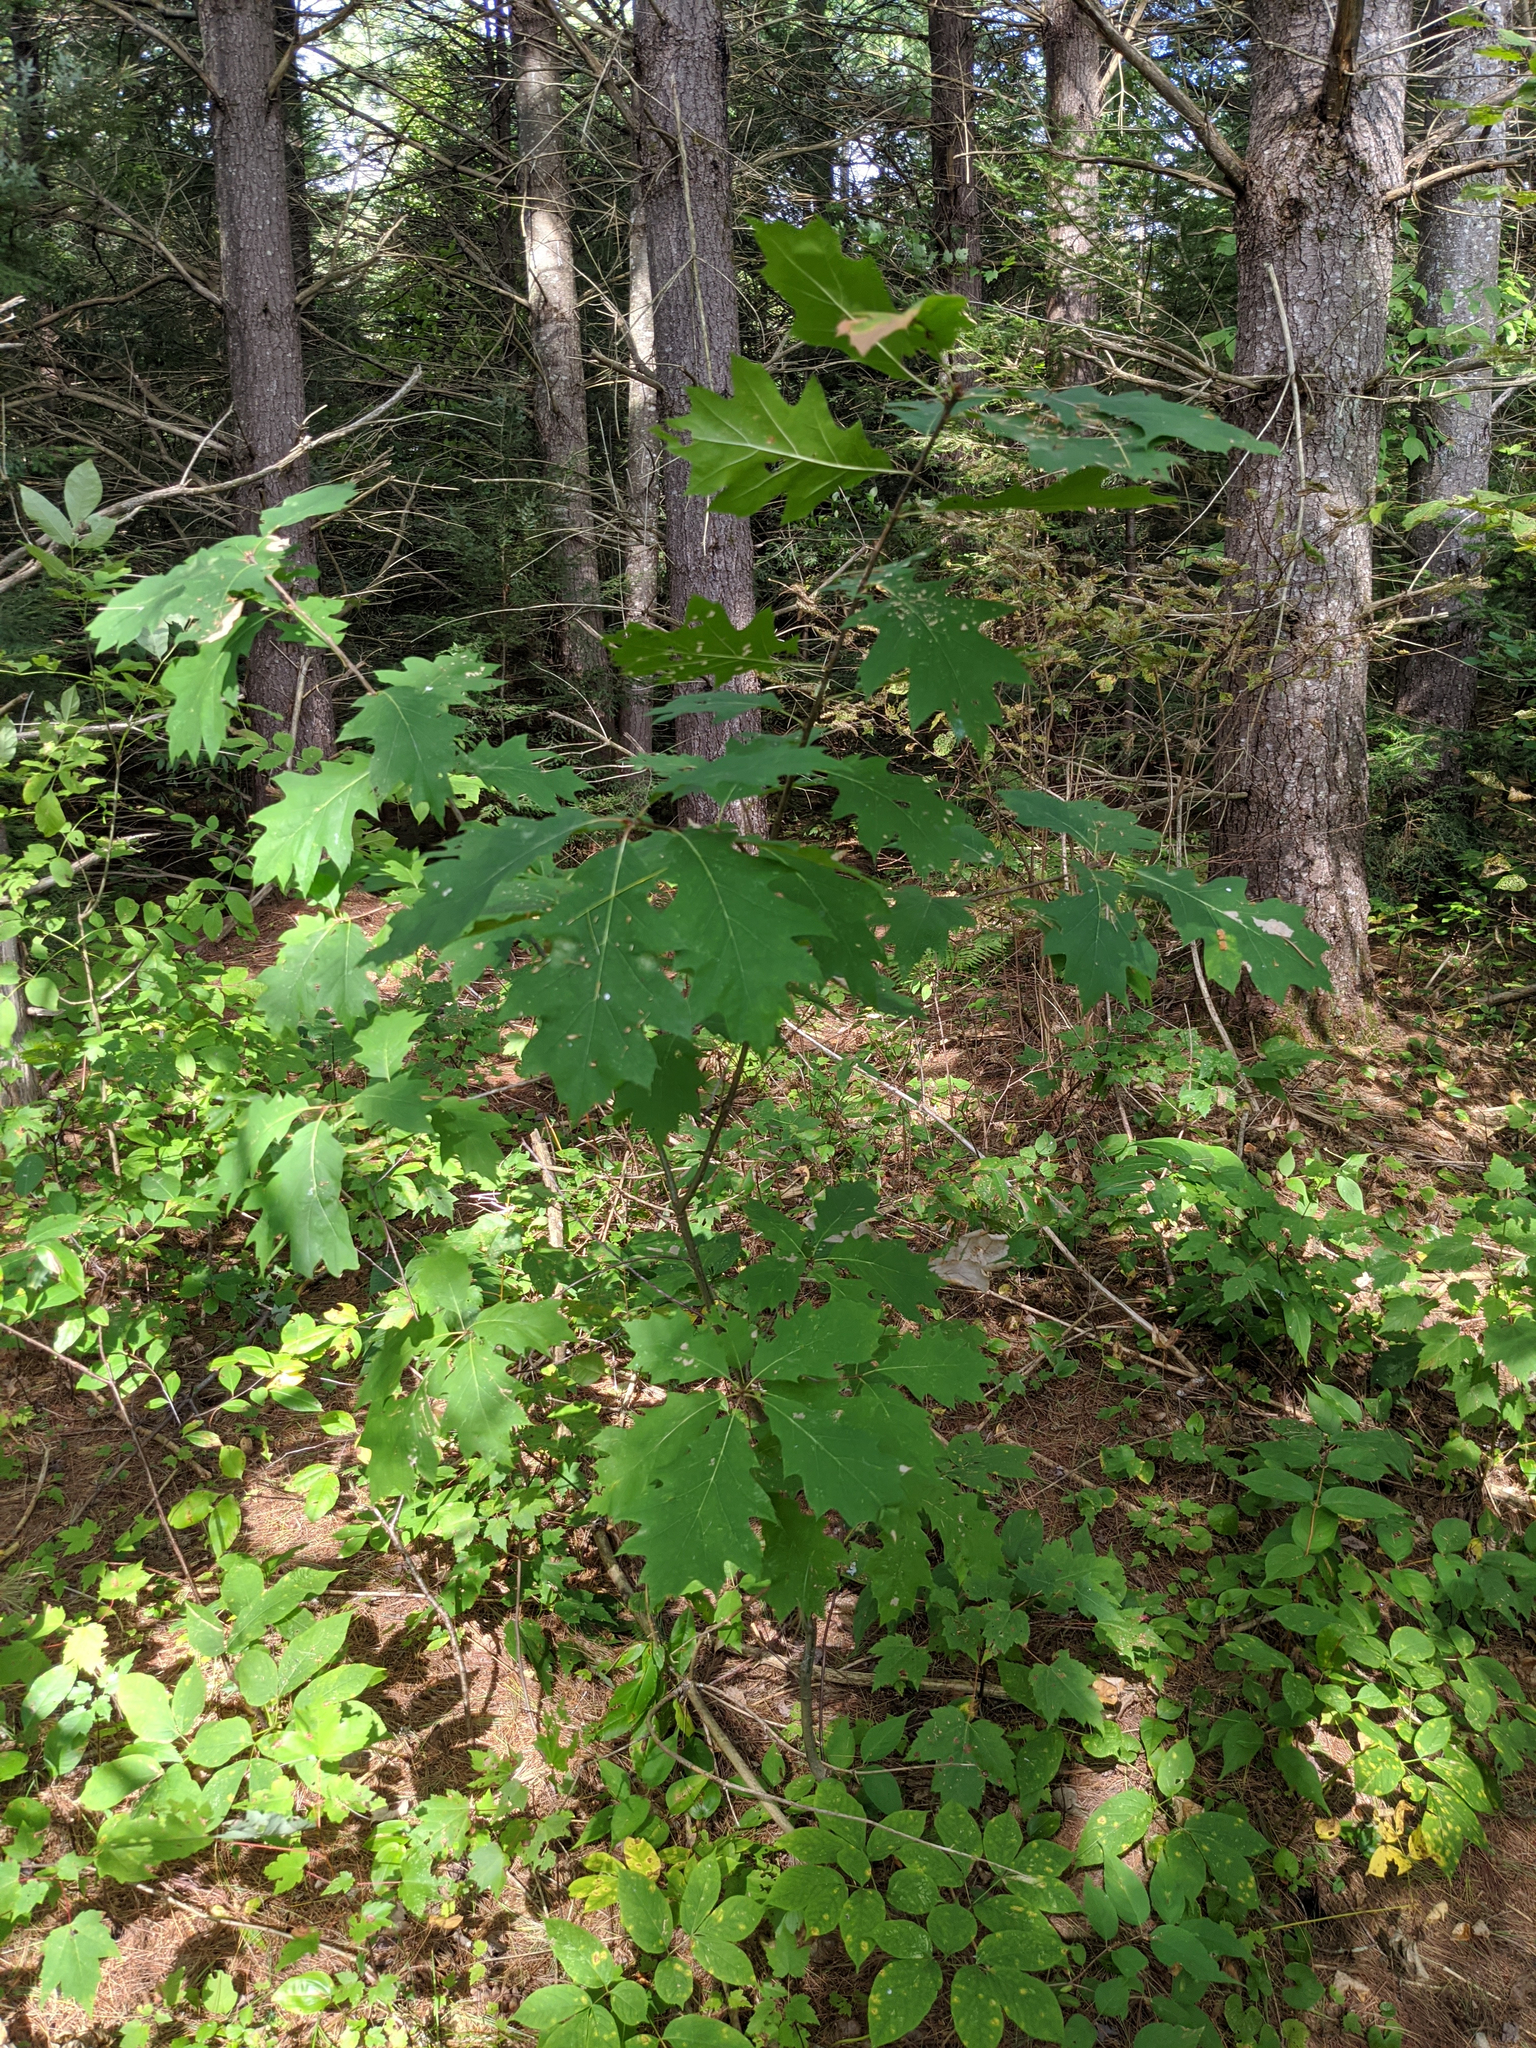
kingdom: Plantae
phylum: Tracheophyta
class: Magnoliopsida
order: Fagales
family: Fagaceae
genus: Quercus
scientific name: Quercus rubra
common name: Red oak
